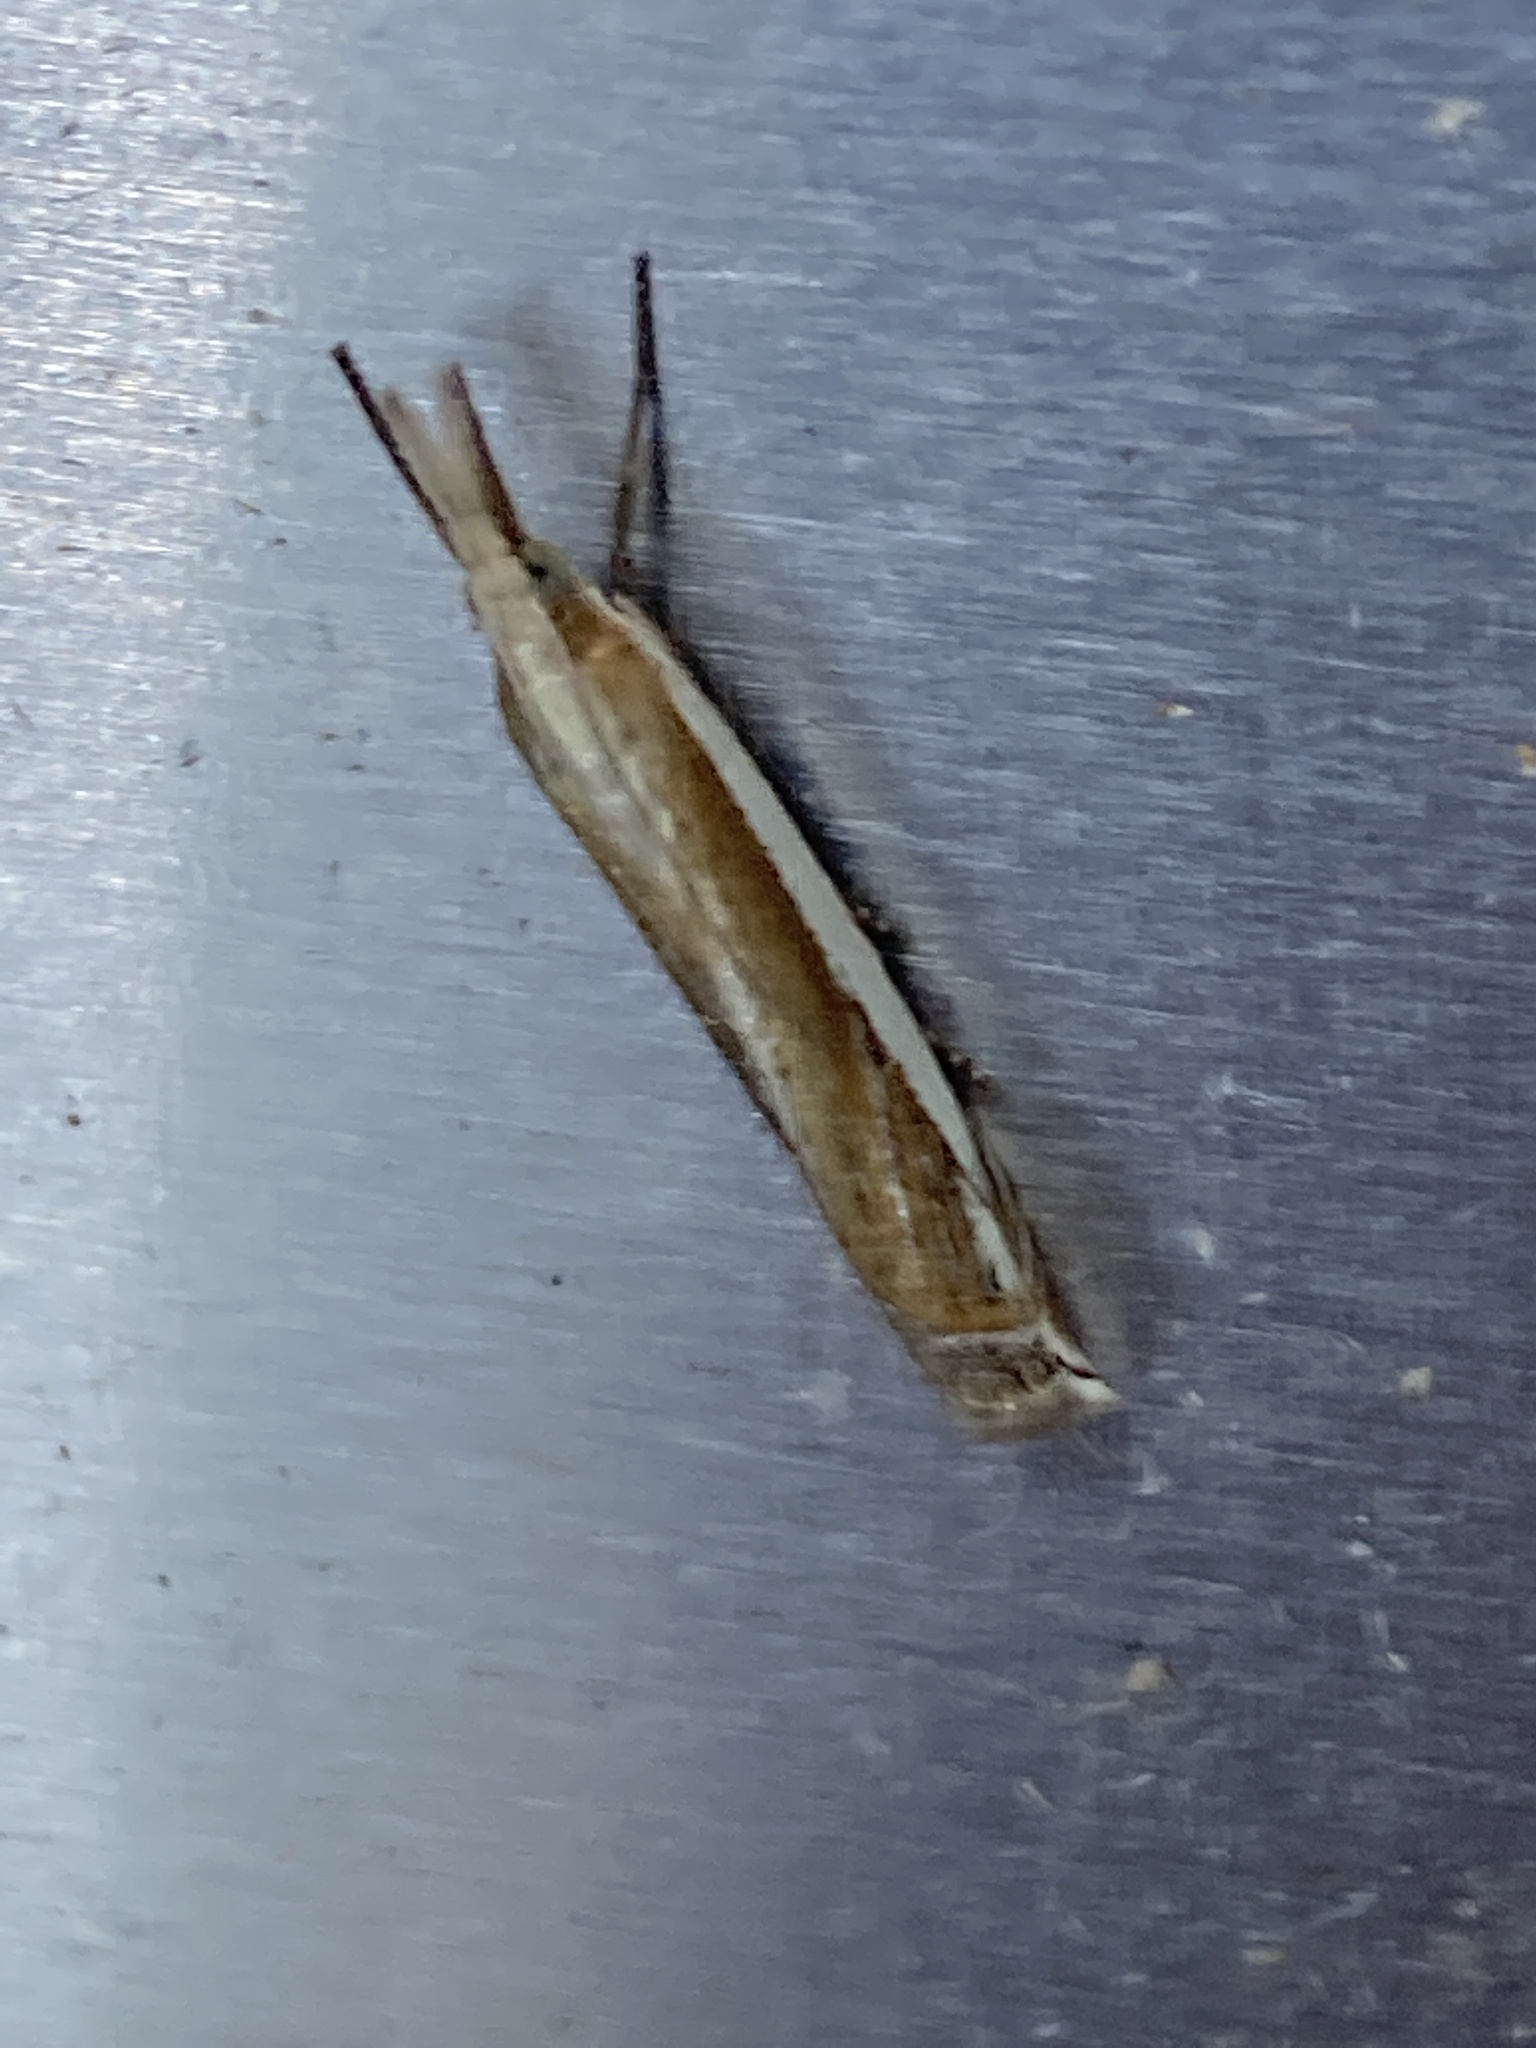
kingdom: Animalia
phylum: Arthropoda
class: Insecta
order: Lepidoptera
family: Crambidae
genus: Crambus
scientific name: Crambus pascuella
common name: Inlaid grass-veneer
